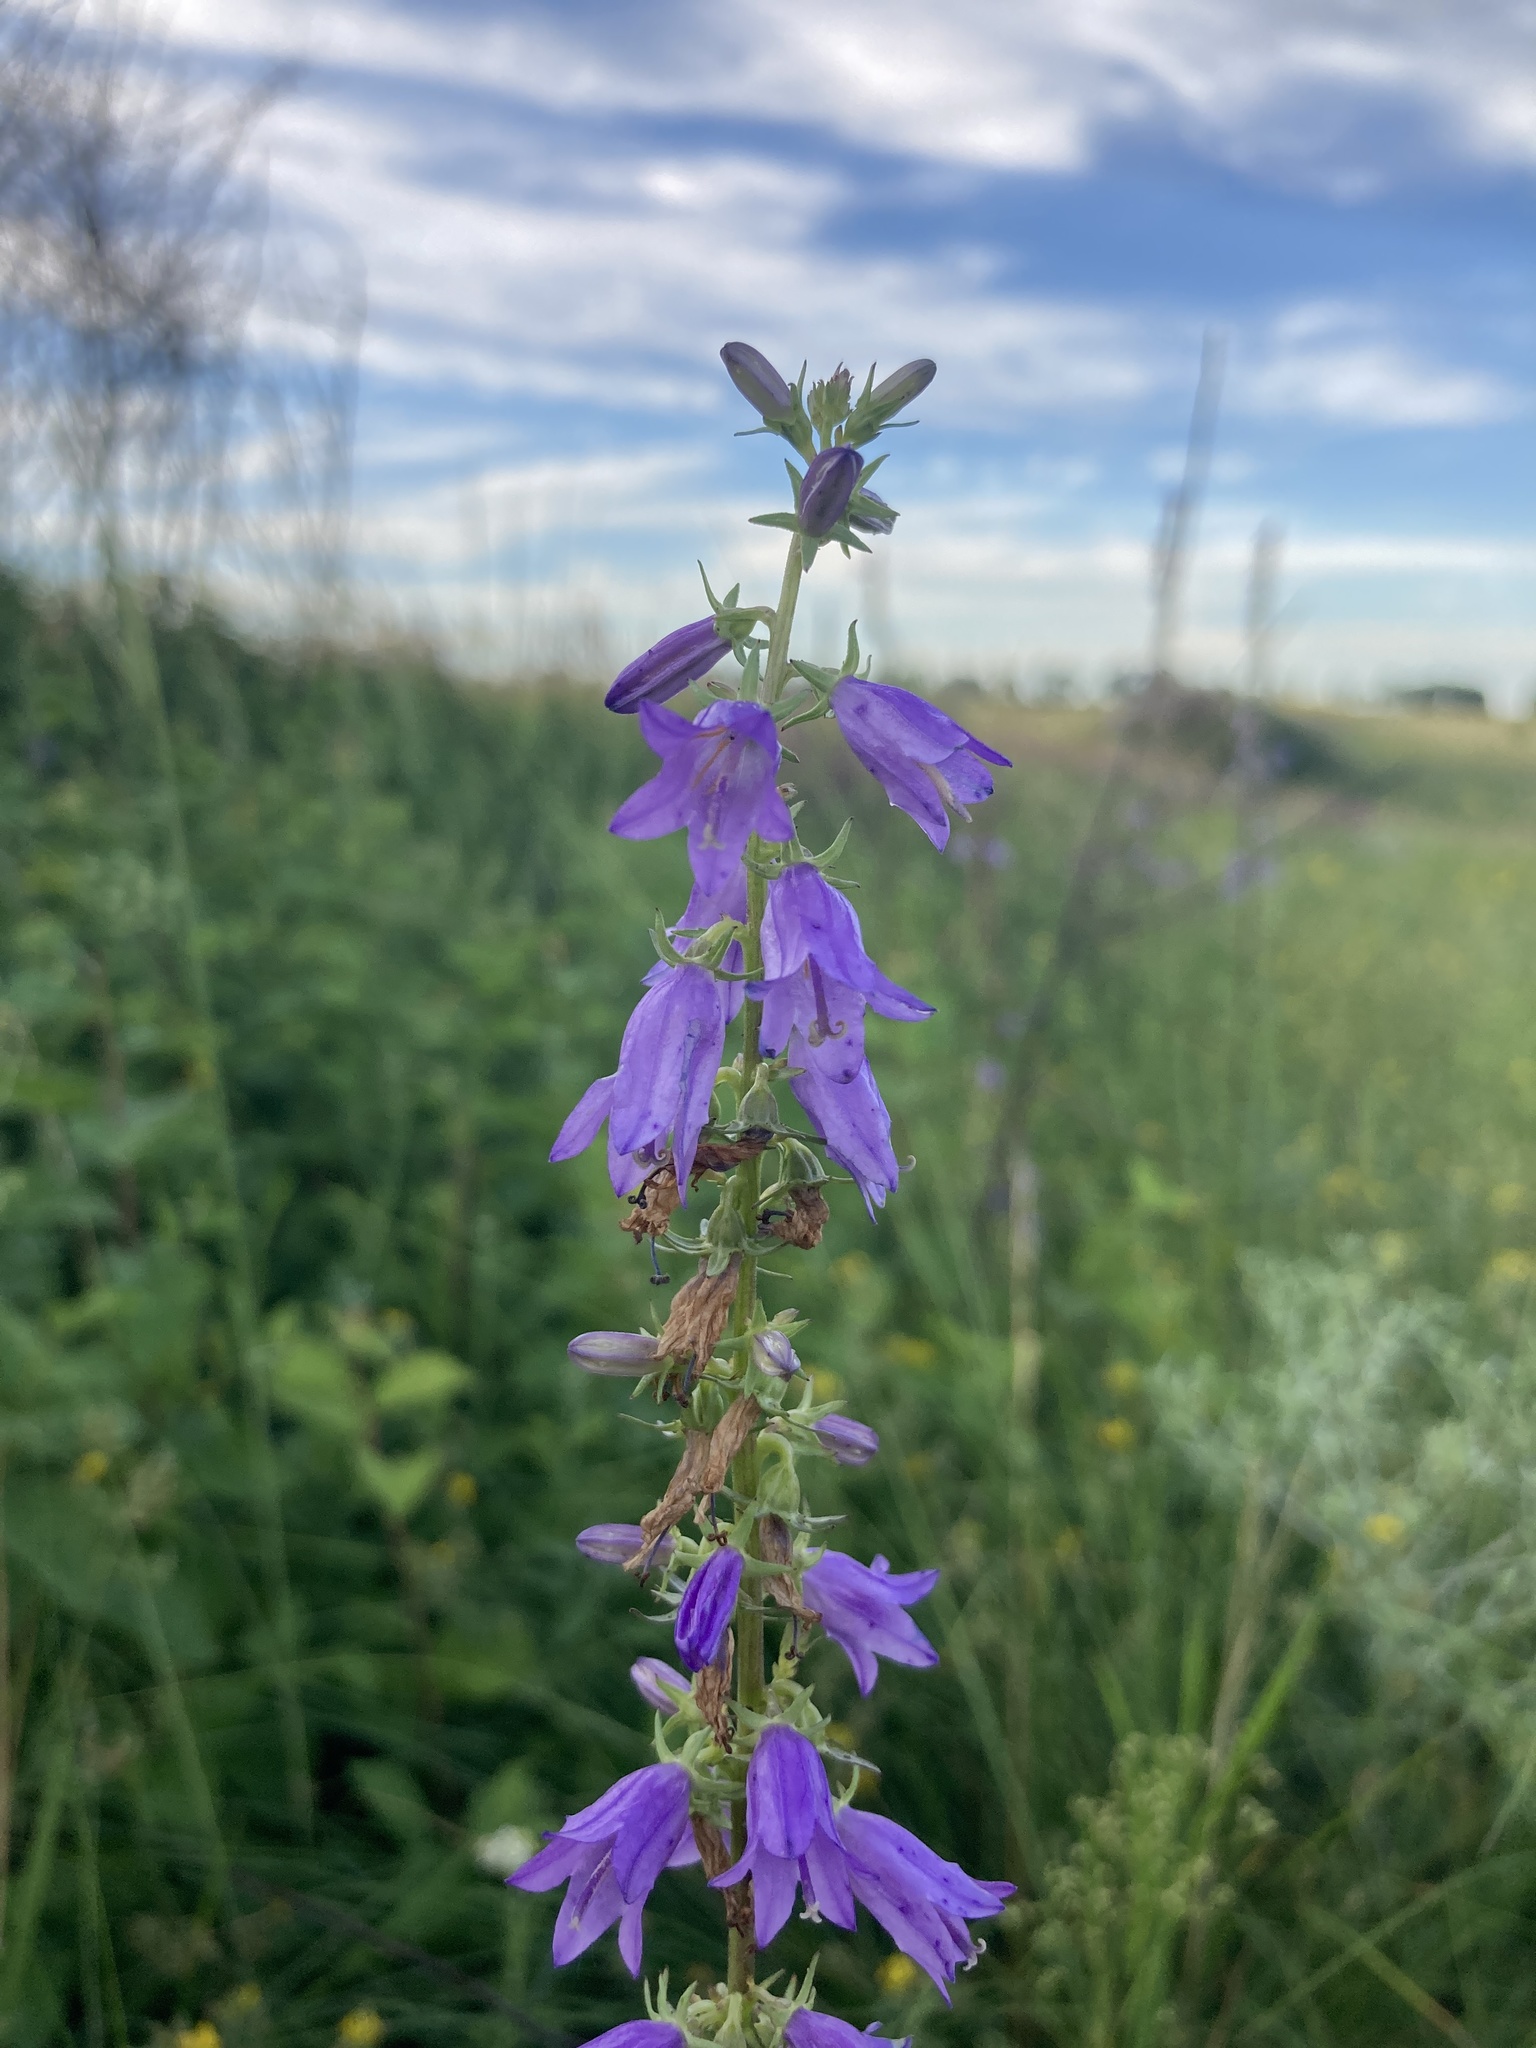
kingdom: Plantae
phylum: Tracheophyta
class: Magnoliopsida
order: Asterales
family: Campanulaceae
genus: Campanula
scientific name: Campanula bononiensis
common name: Pale bellflower
